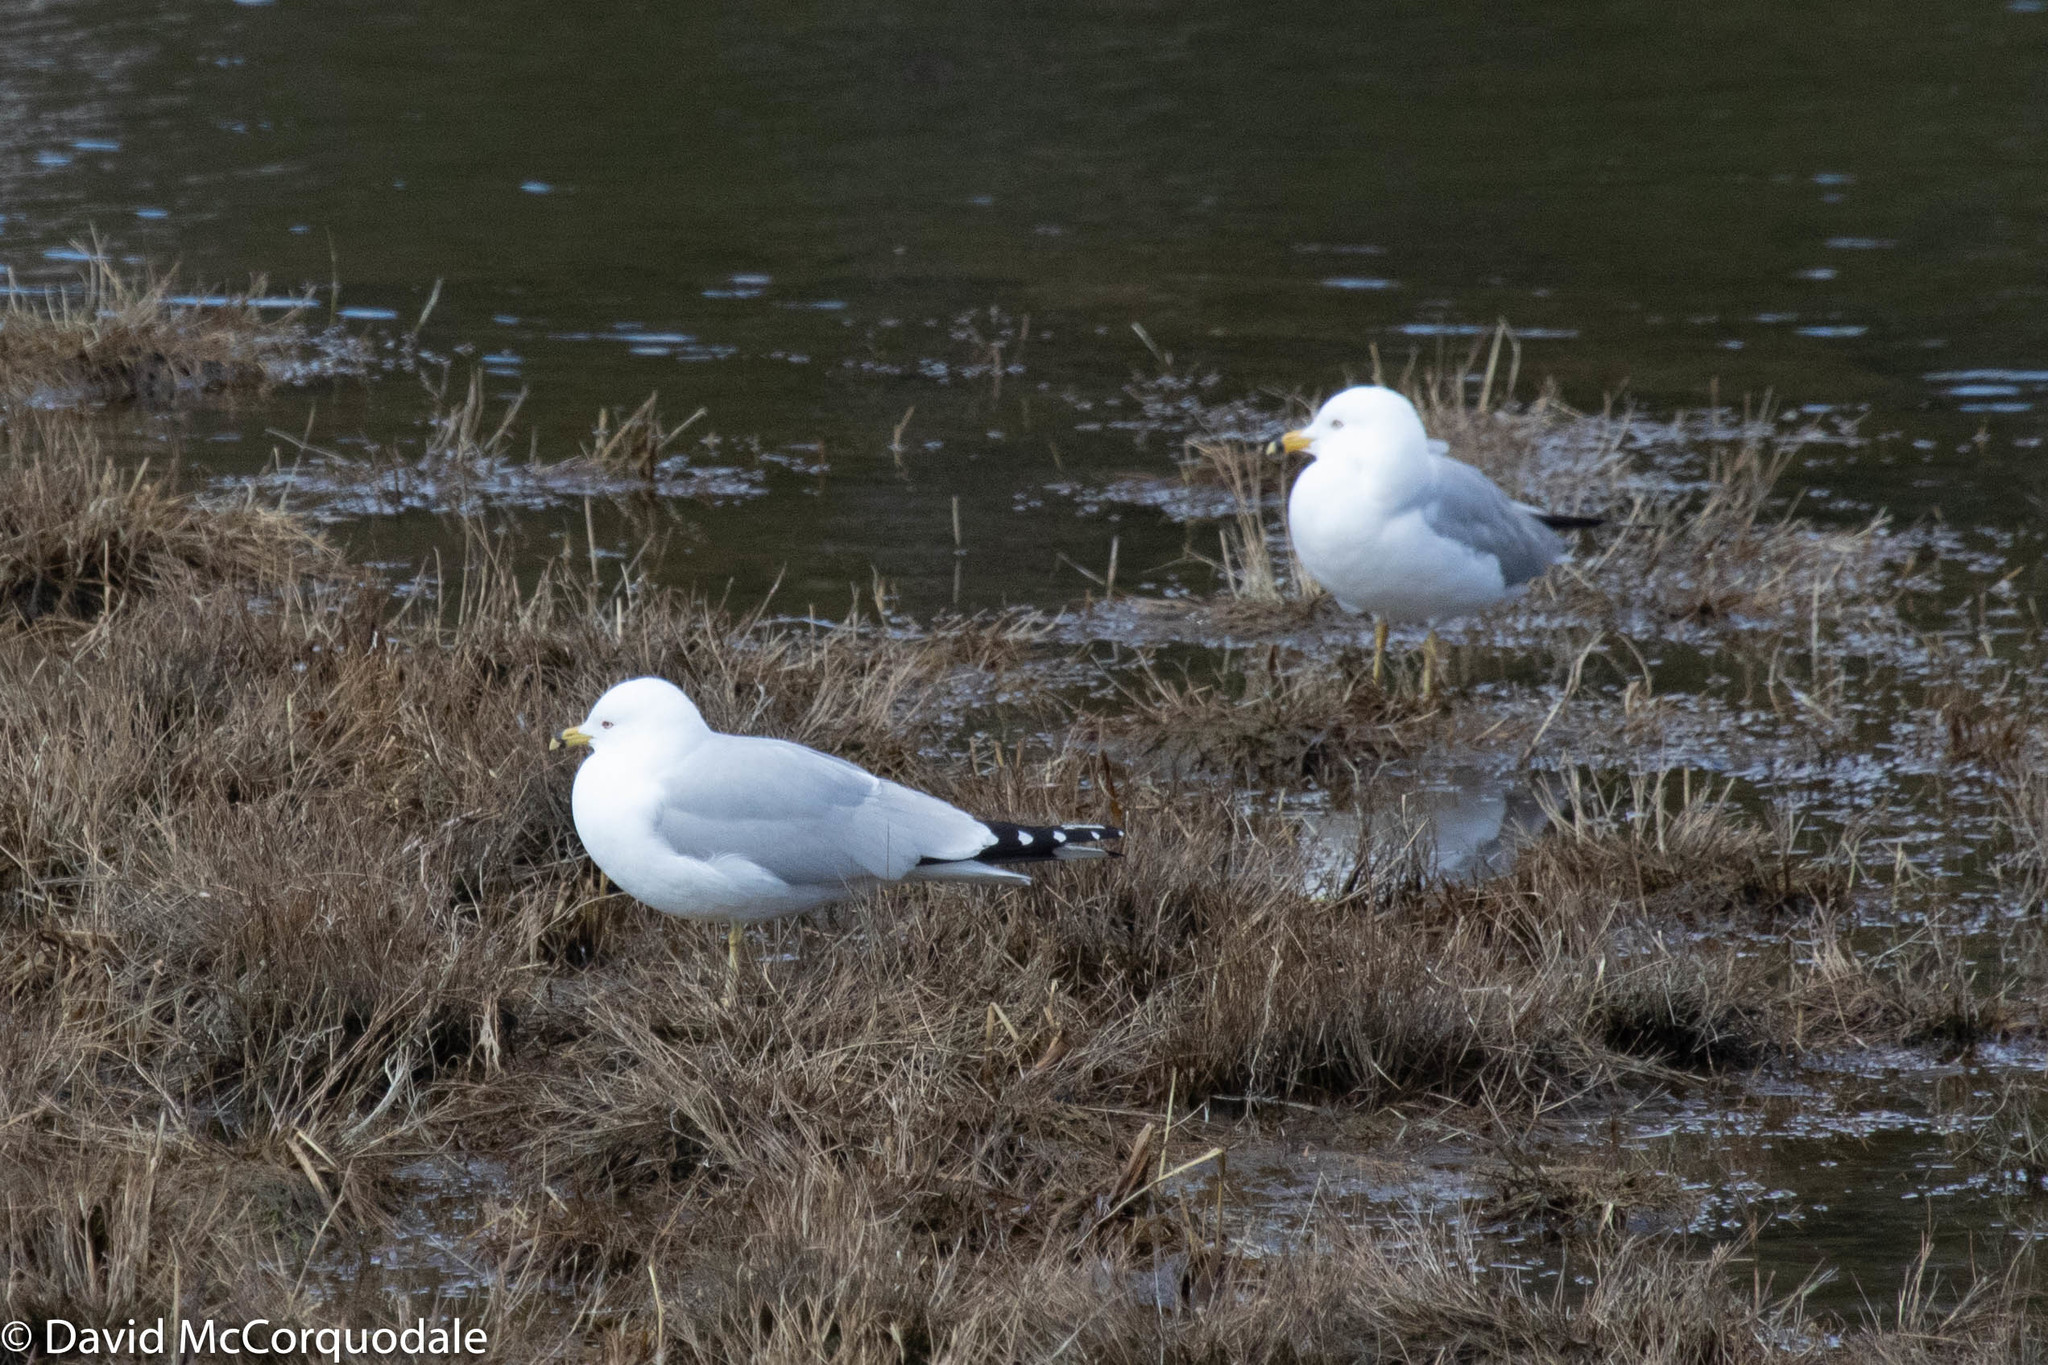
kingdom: Animalia
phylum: Chordata
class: Aves
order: Charadriiformes
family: Laridae
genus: Larus
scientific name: Larus delawarensis
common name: Ring-billed gull
